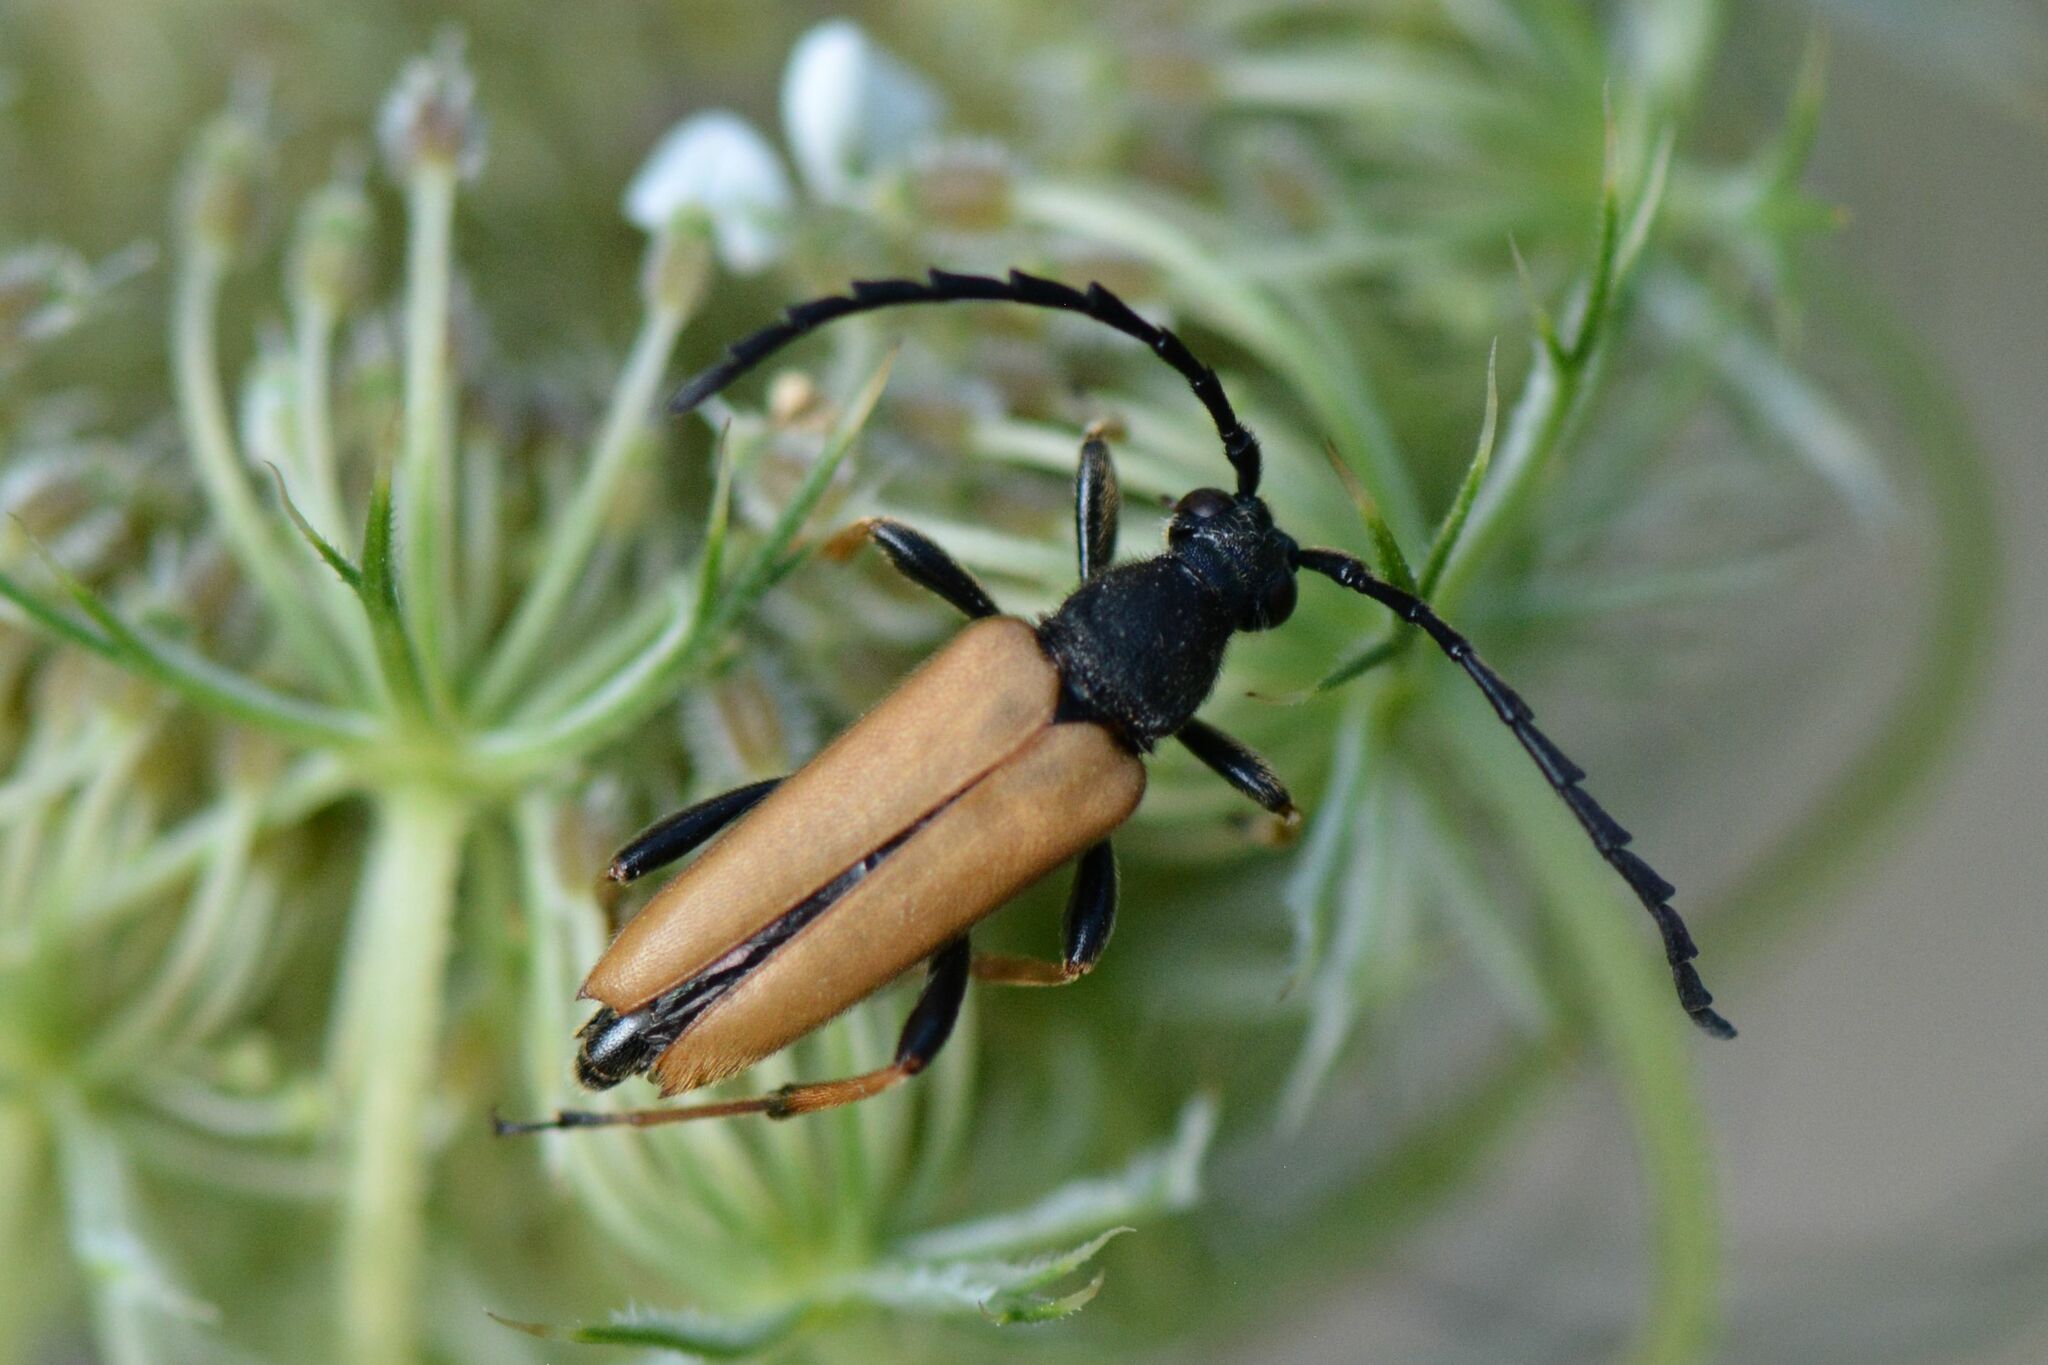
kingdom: Animalia
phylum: Arthropoda
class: Insecta
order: Coleoptera
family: Cerambycidae
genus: Stictoleptura
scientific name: Stictoleptura rubra
